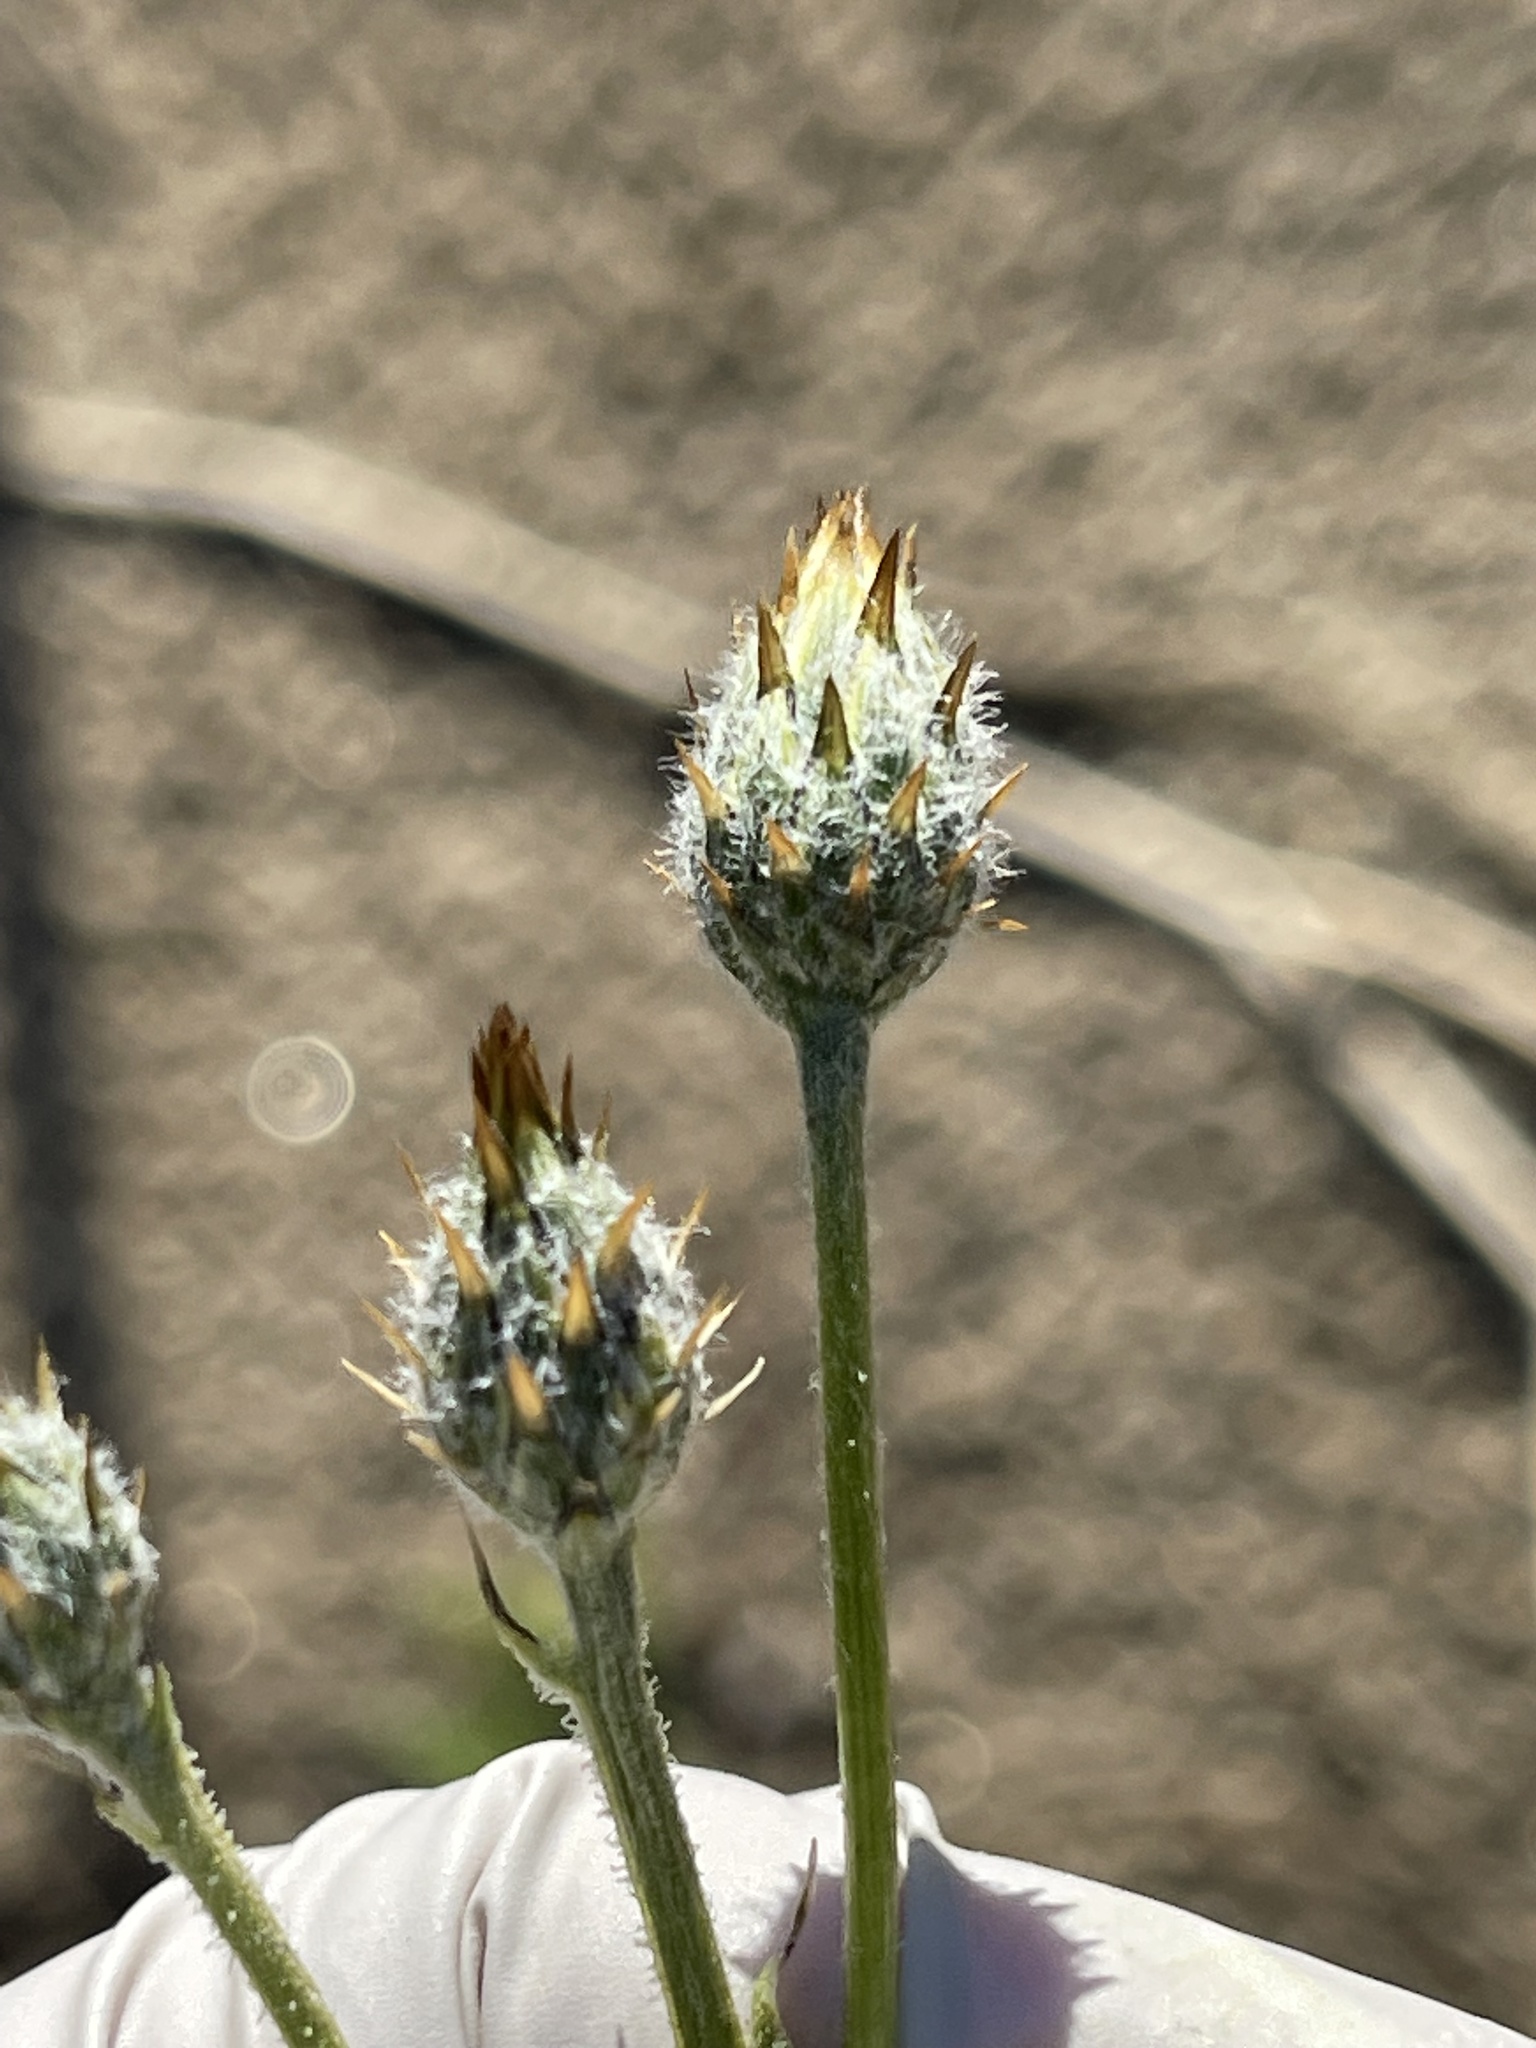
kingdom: Plantae
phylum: Tracheophyta
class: Magnoliopsida
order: Asterales
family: Asteraceae
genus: Volutaria
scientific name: Volutaria tubuliflora
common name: Desert knapweed
